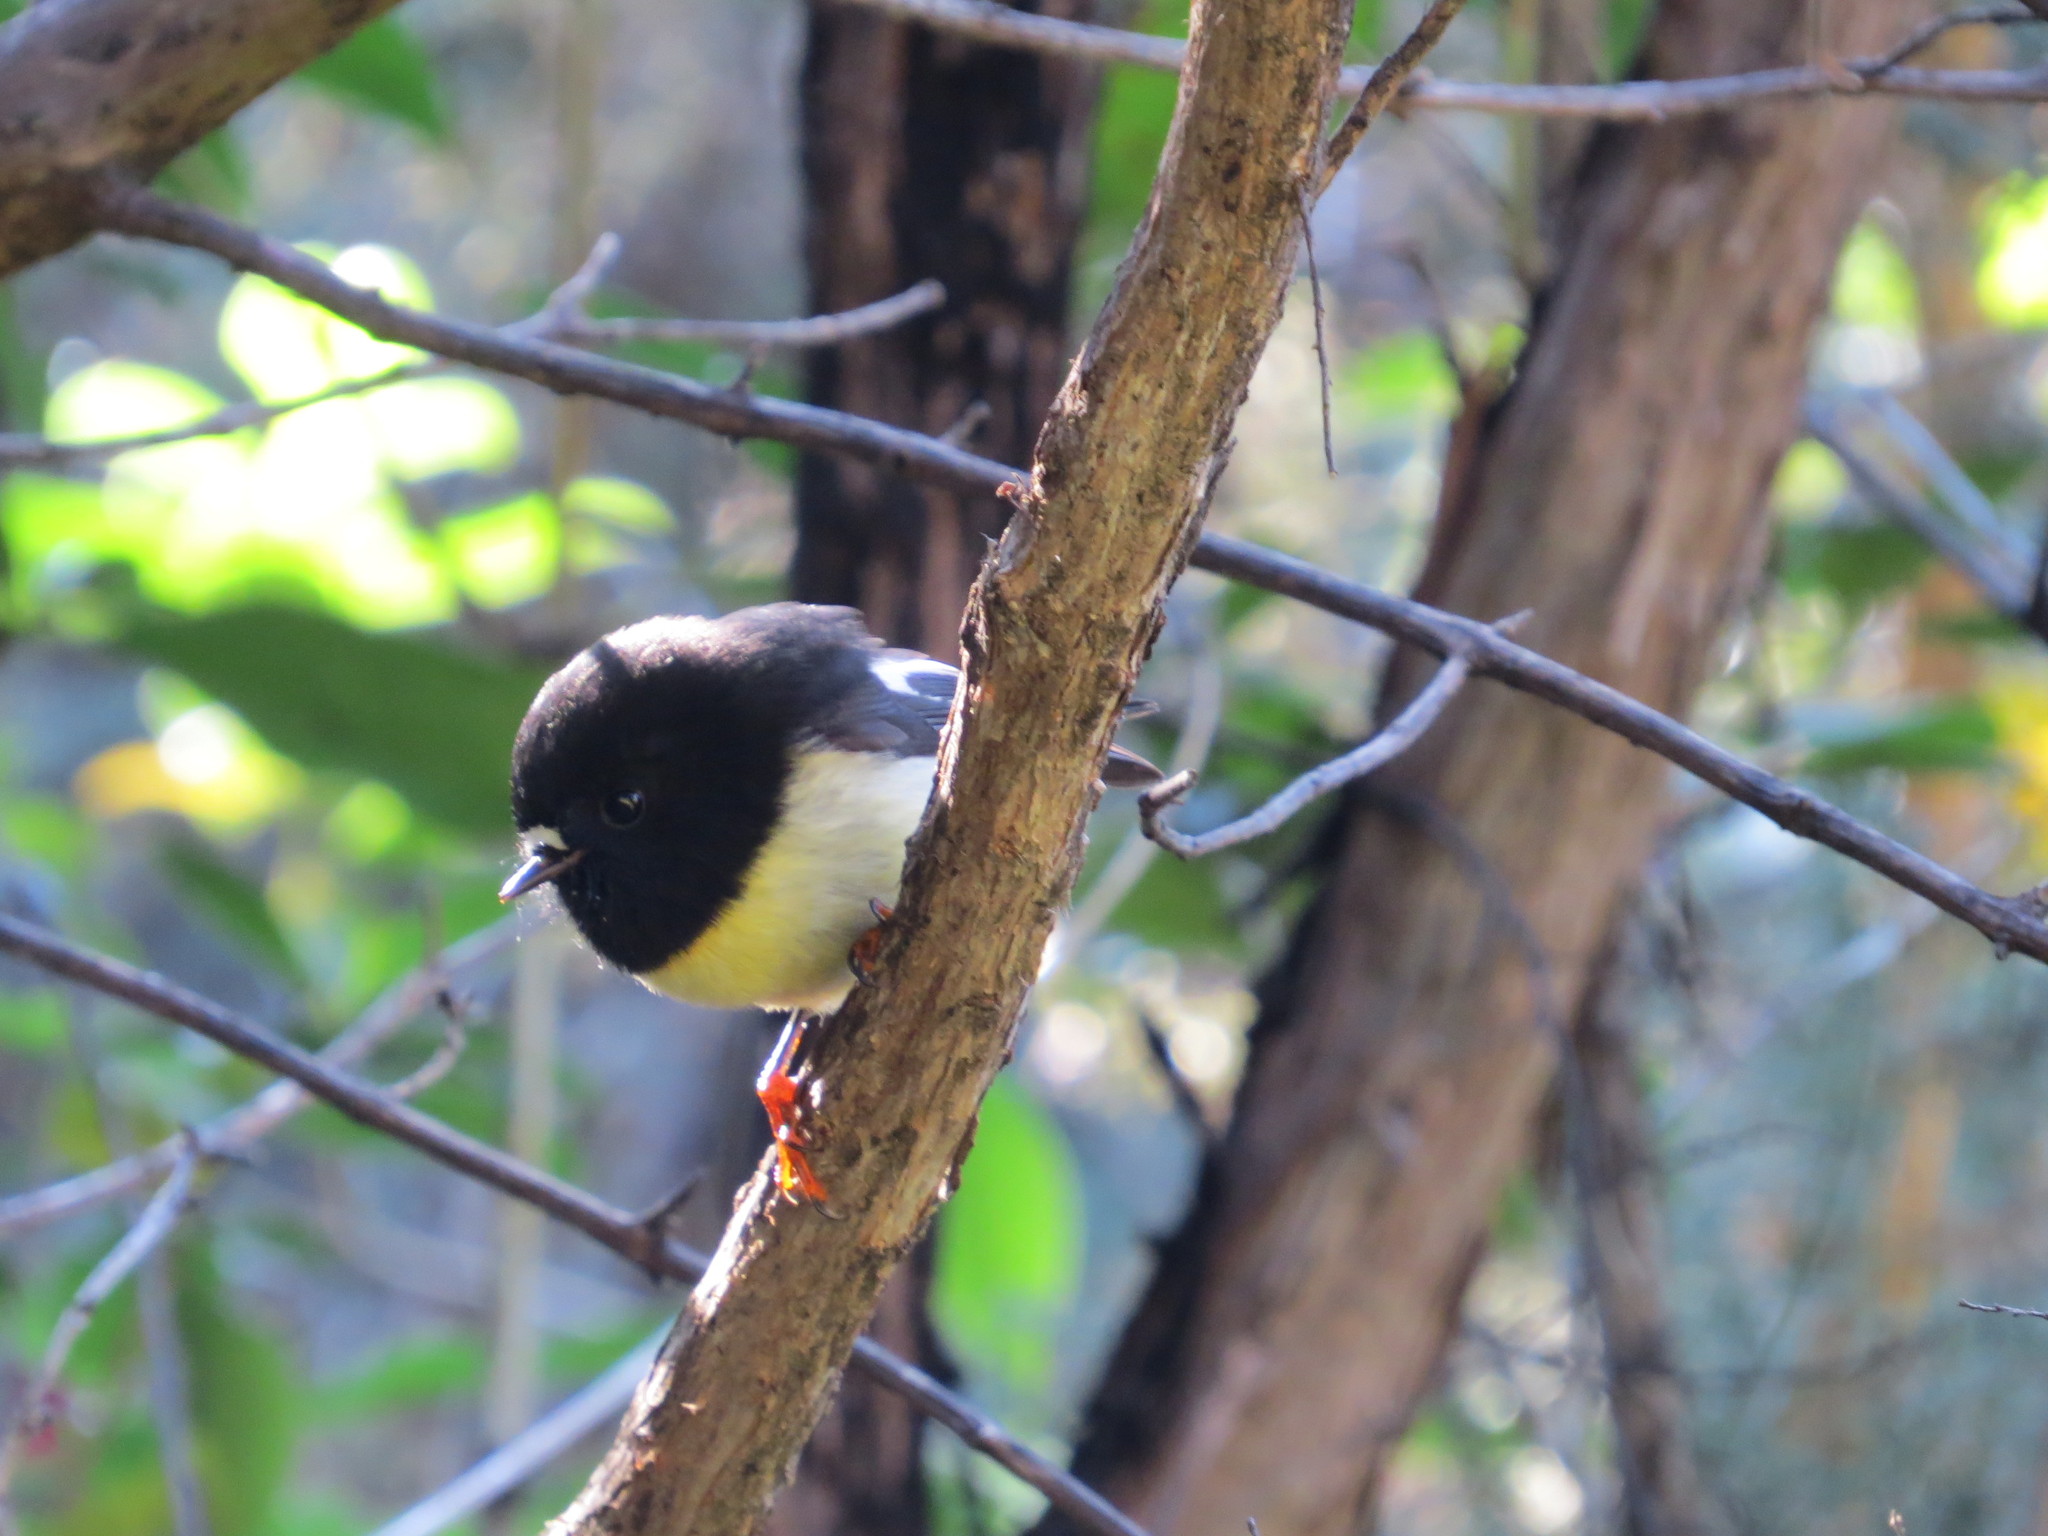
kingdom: Animalia
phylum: Chordata
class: Aves
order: Passeriformes
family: Petroicidae
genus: Petroica
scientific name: Petroica macrocephala
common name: Tomtit
